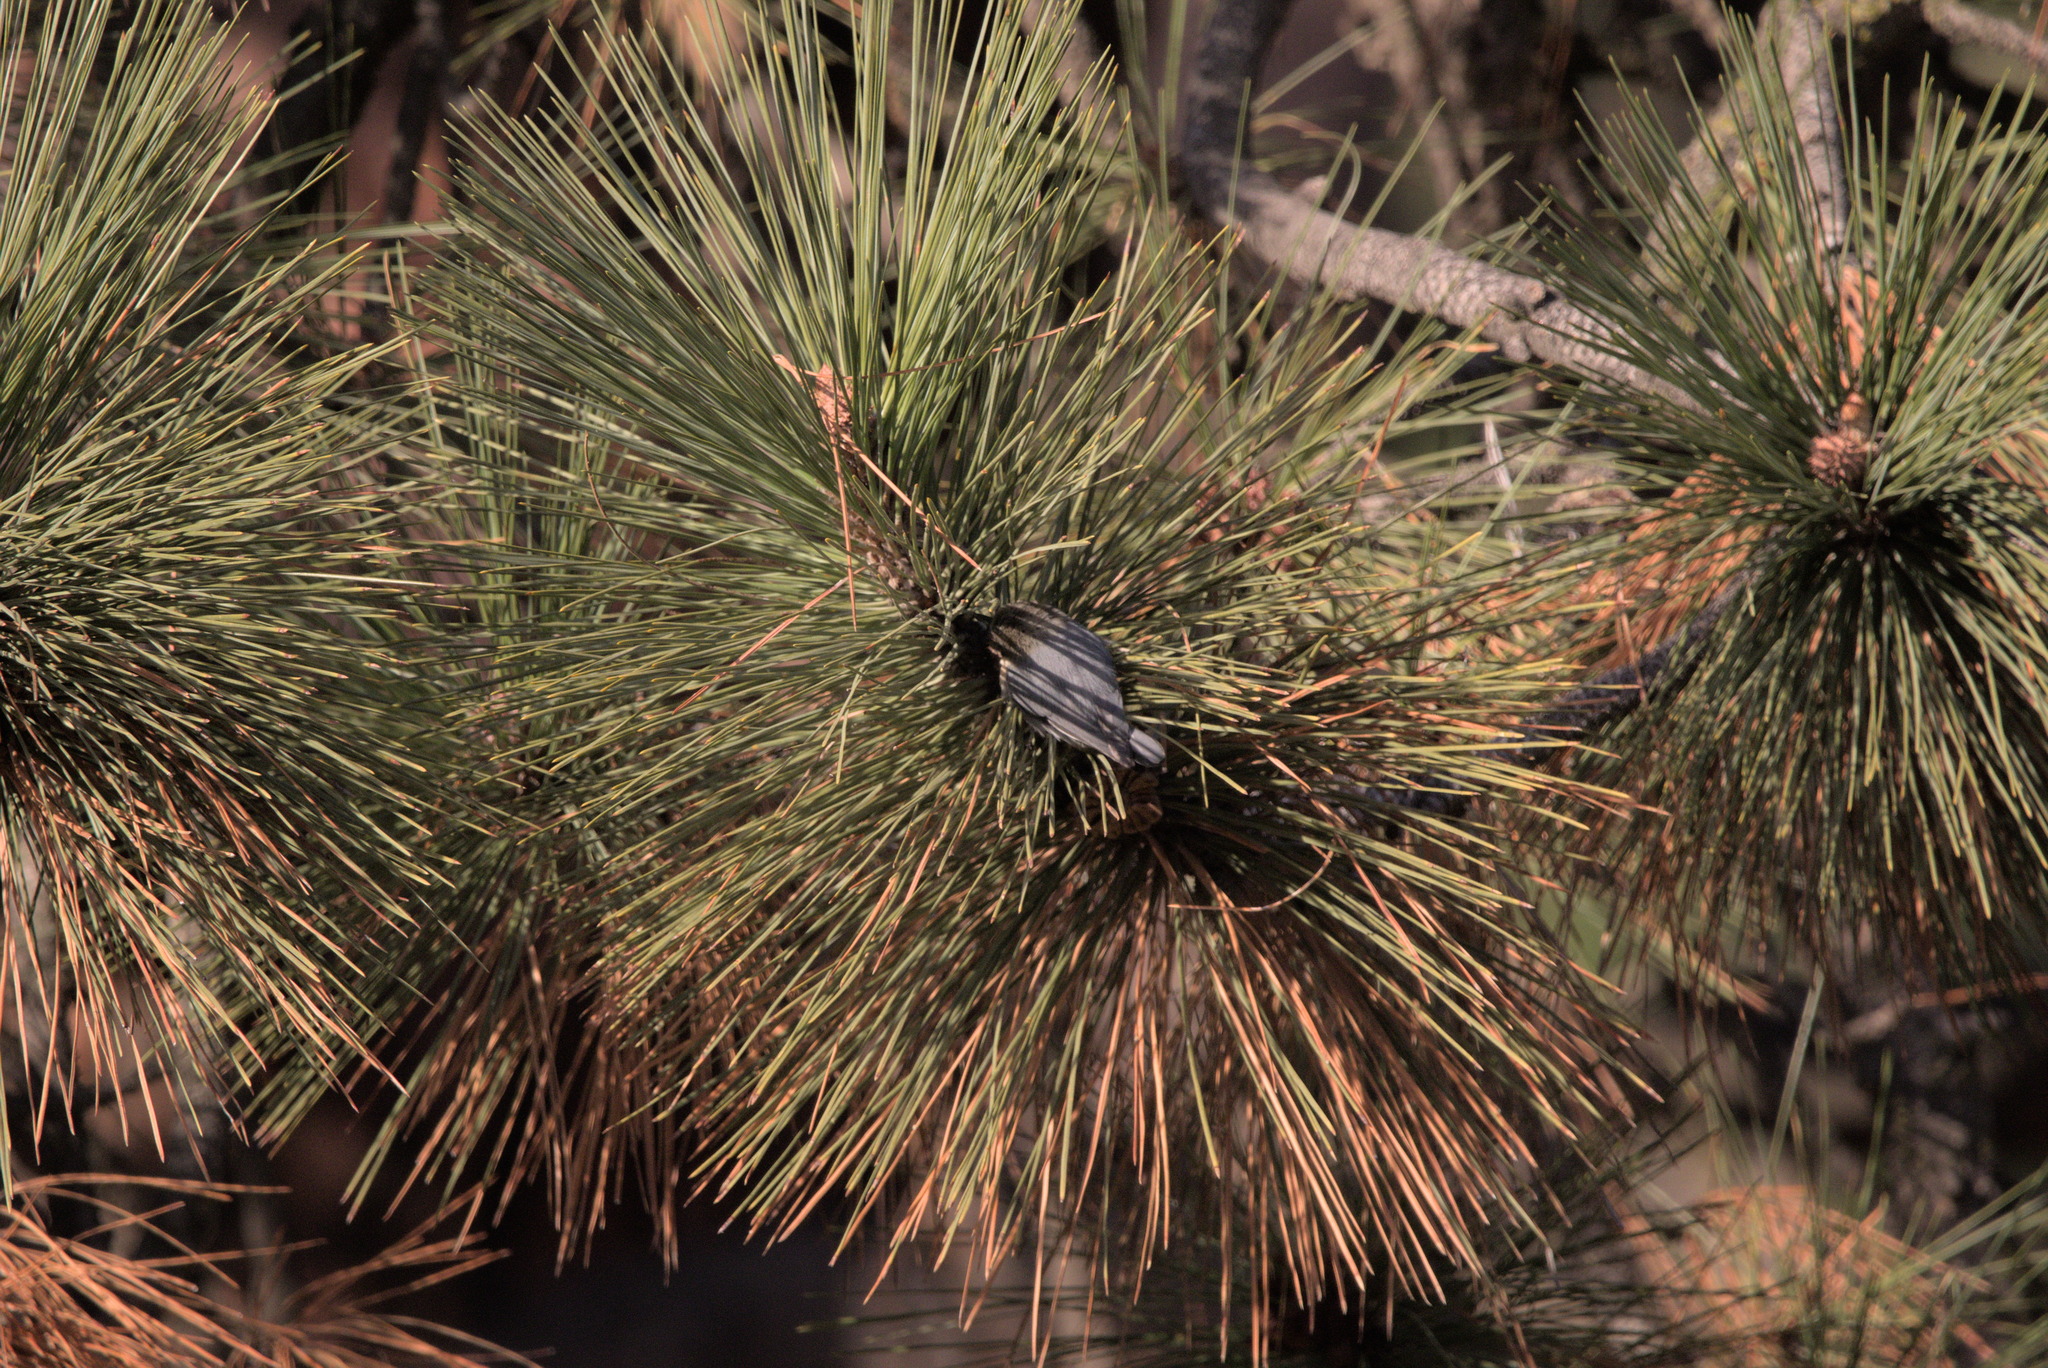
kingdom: Animalia
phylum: Chordata
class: Aves
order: Passeriformes
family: Sittidae
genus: Sitta
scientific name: Sitta pygmaea
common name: Pygmy nuthatch
